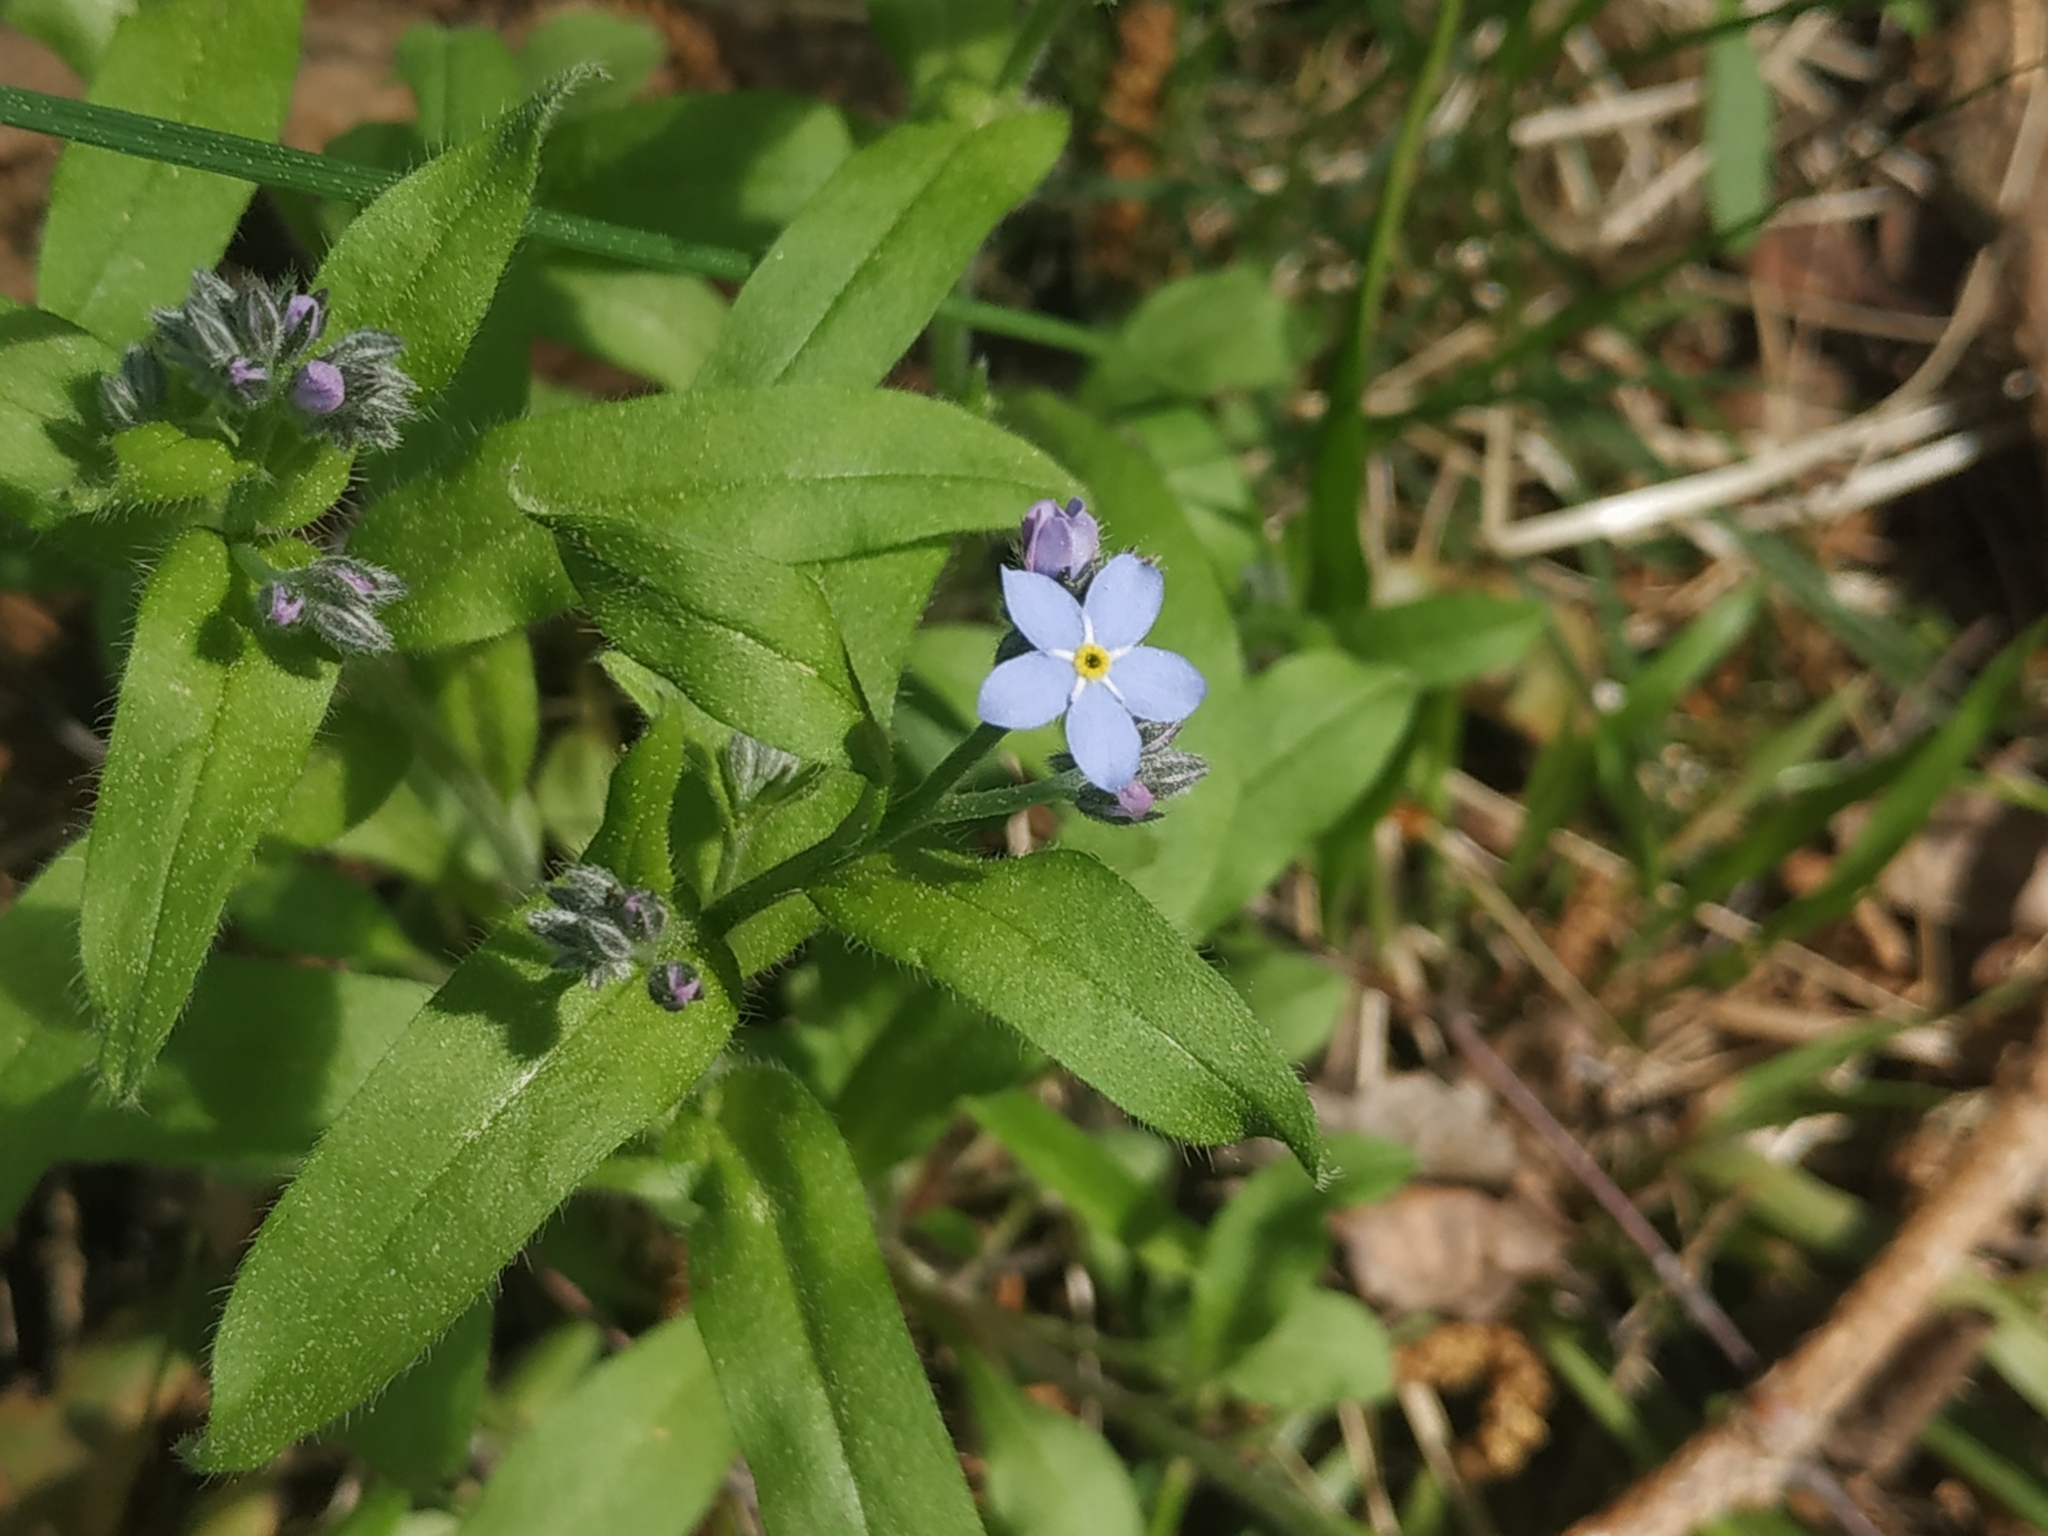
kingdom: Plantae
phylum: Tracheophyta
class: Magnoliopsida
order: Boraginales
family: Boraginaceae
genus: Myosotis
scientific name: Myosotis sylvatica
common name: Wood forget-me-not
